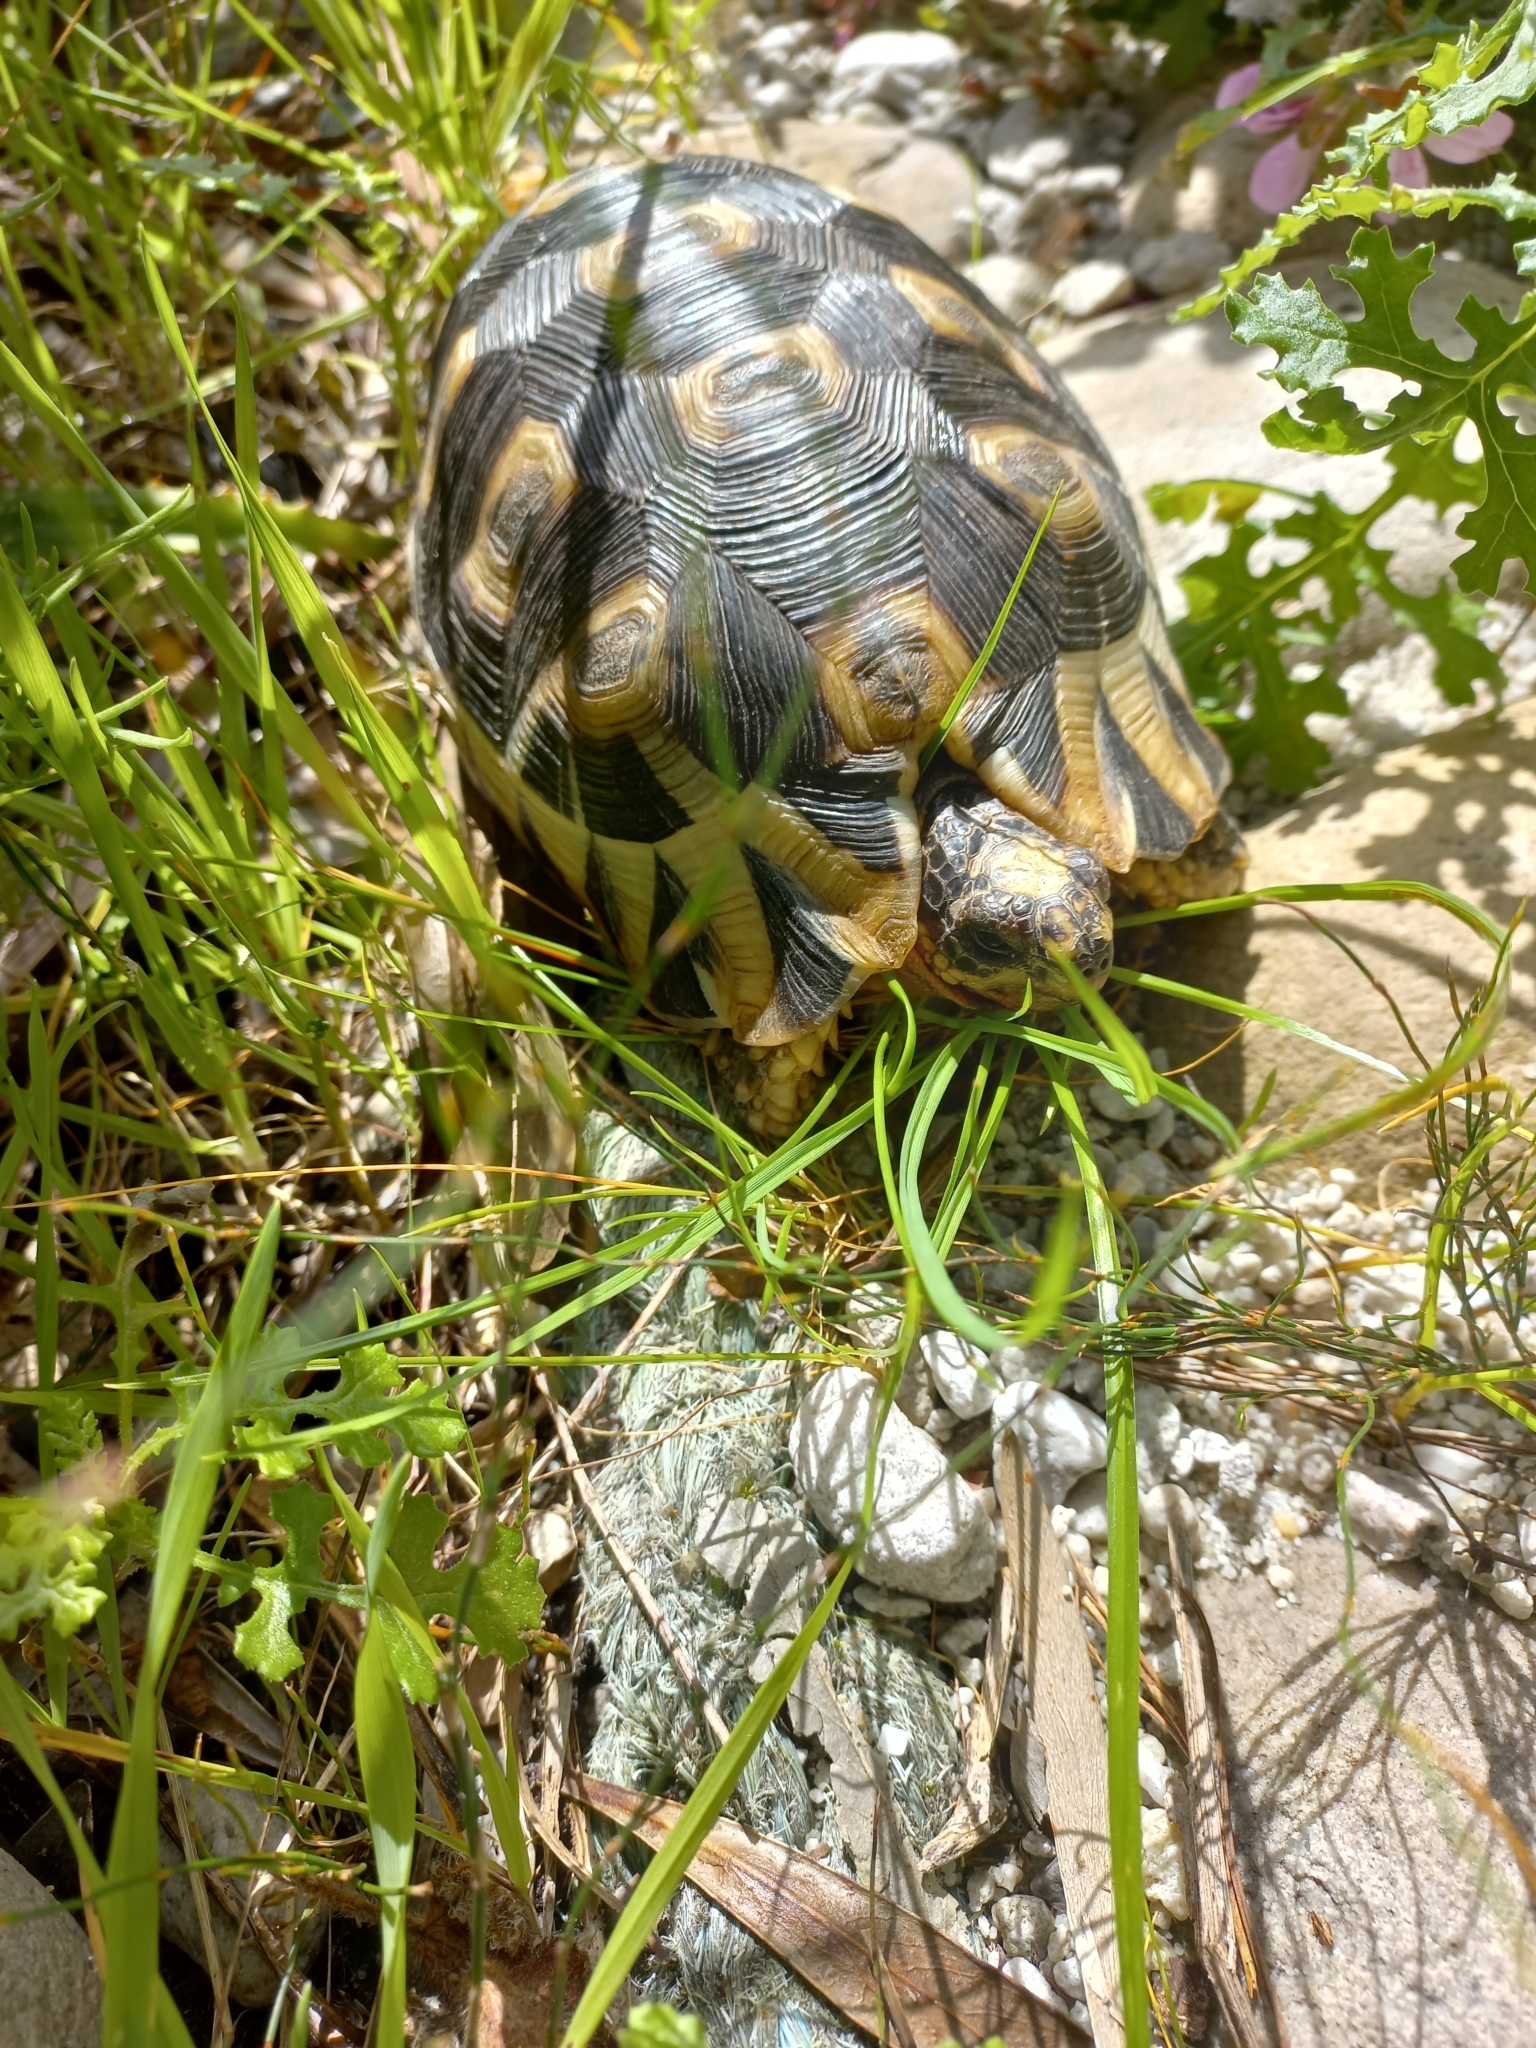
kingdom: Animalia
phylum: Chordata
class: Testudines
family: Testudinidae
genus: Chersina
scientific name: Chersina angulata
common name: South african bowsprit tortoise
